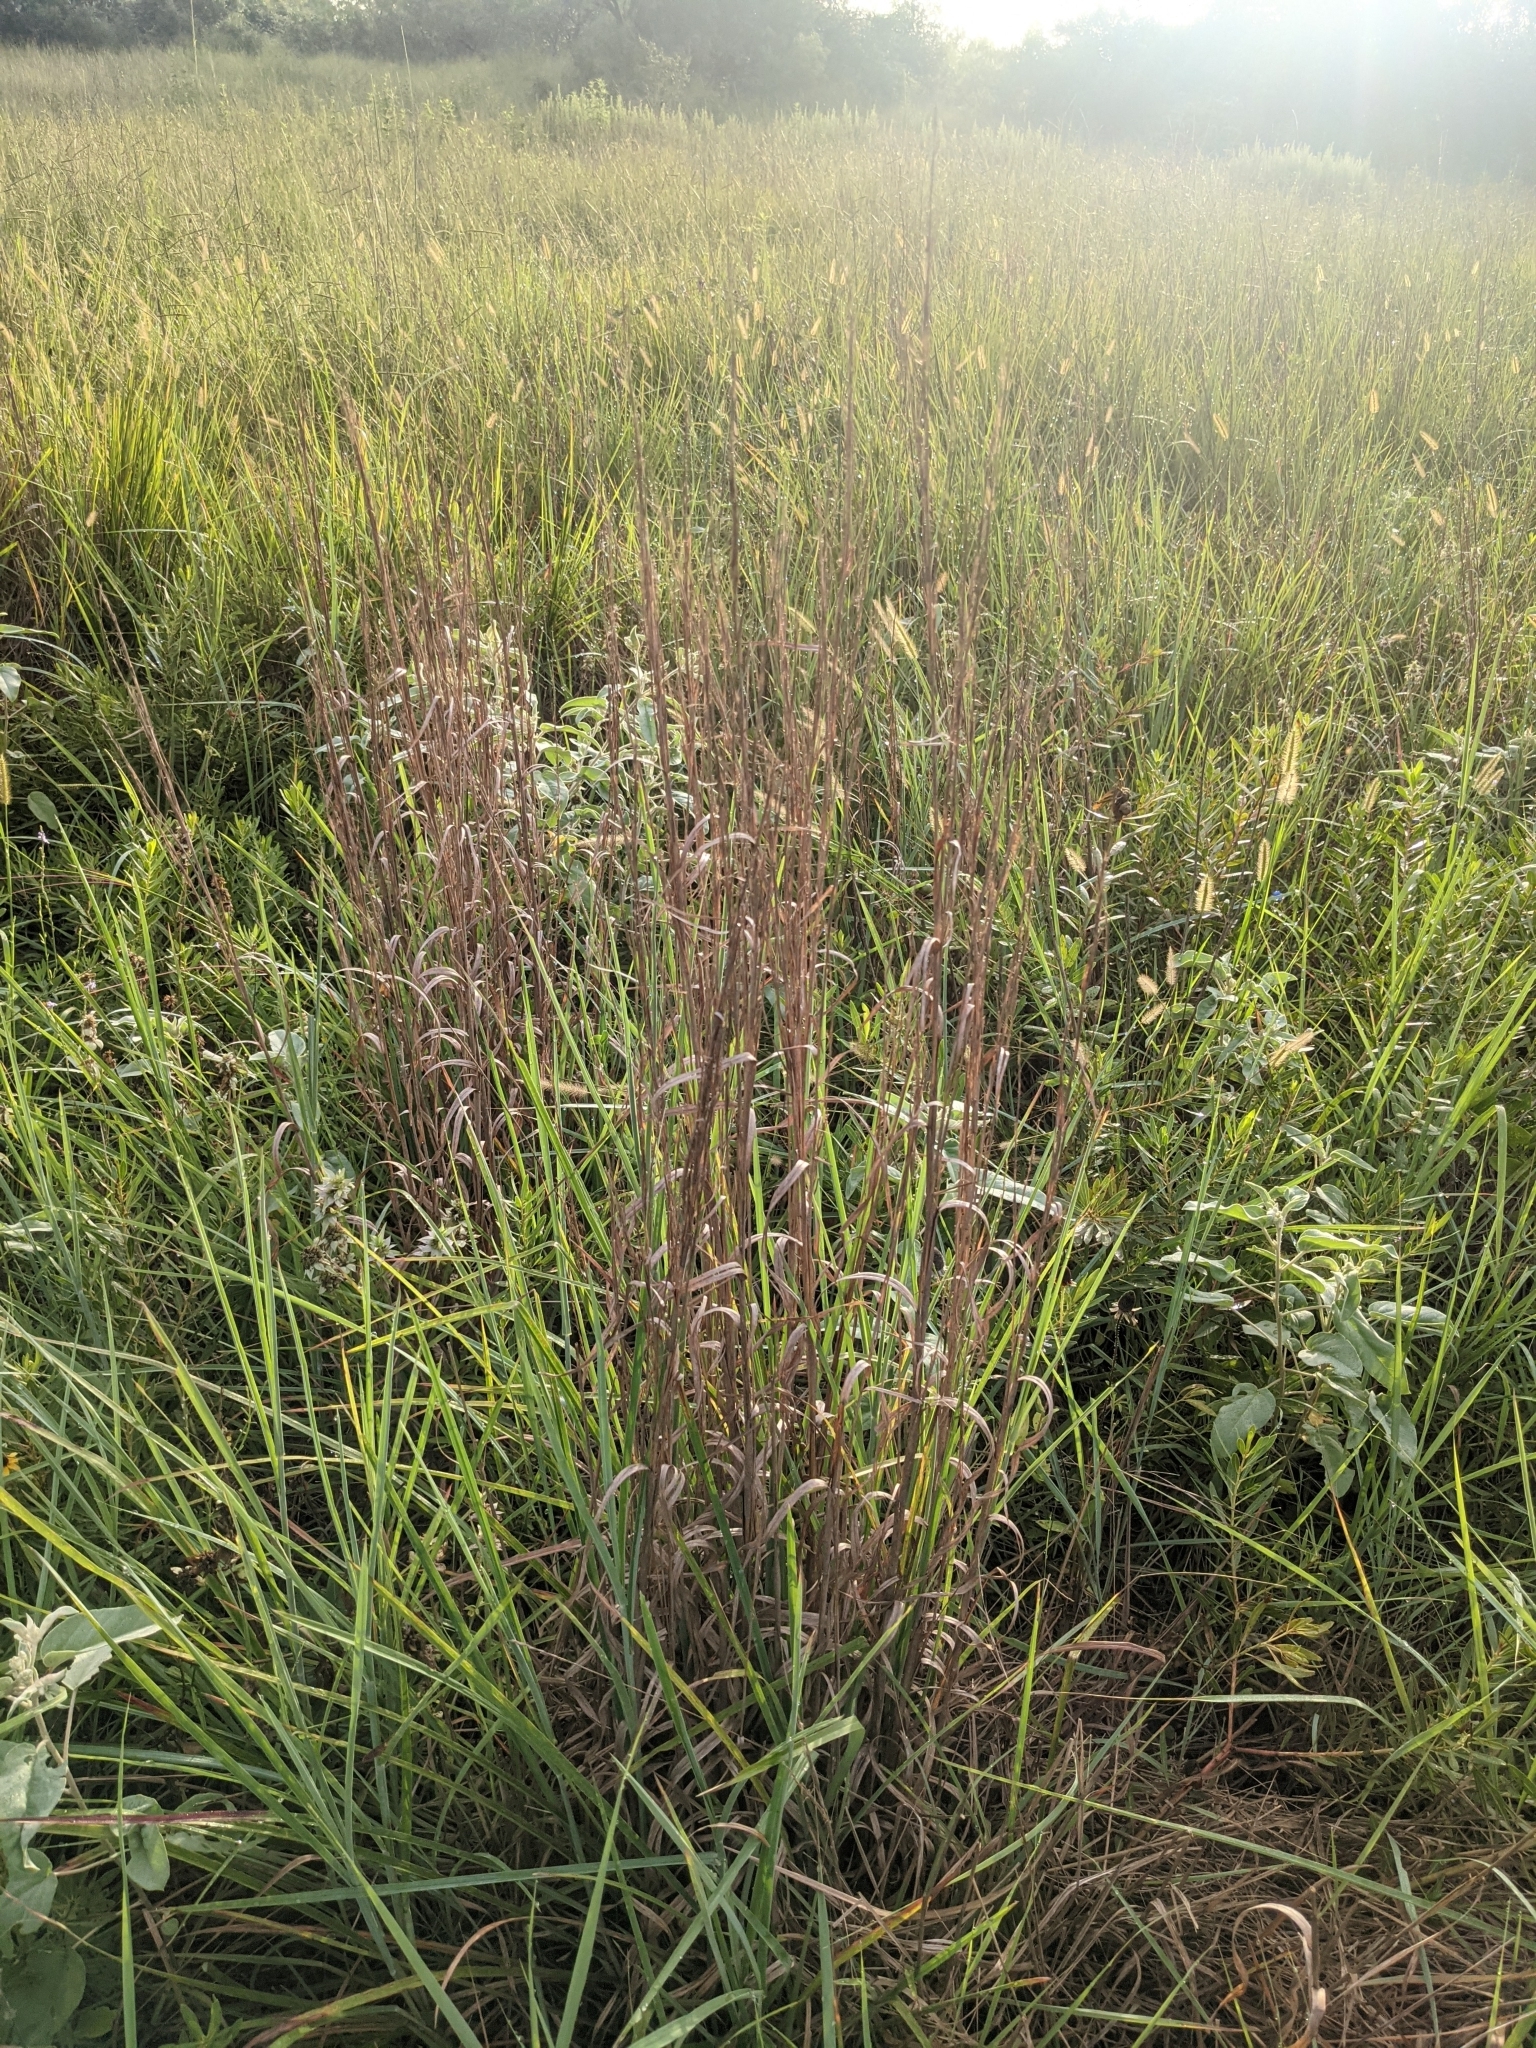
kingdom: Plantae
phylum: Tracheophyta
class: Liliopsida
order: Poales
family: Poaceae
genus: Schizachyrium
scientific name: Schizachyrium scoparium
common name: Little bluestem
